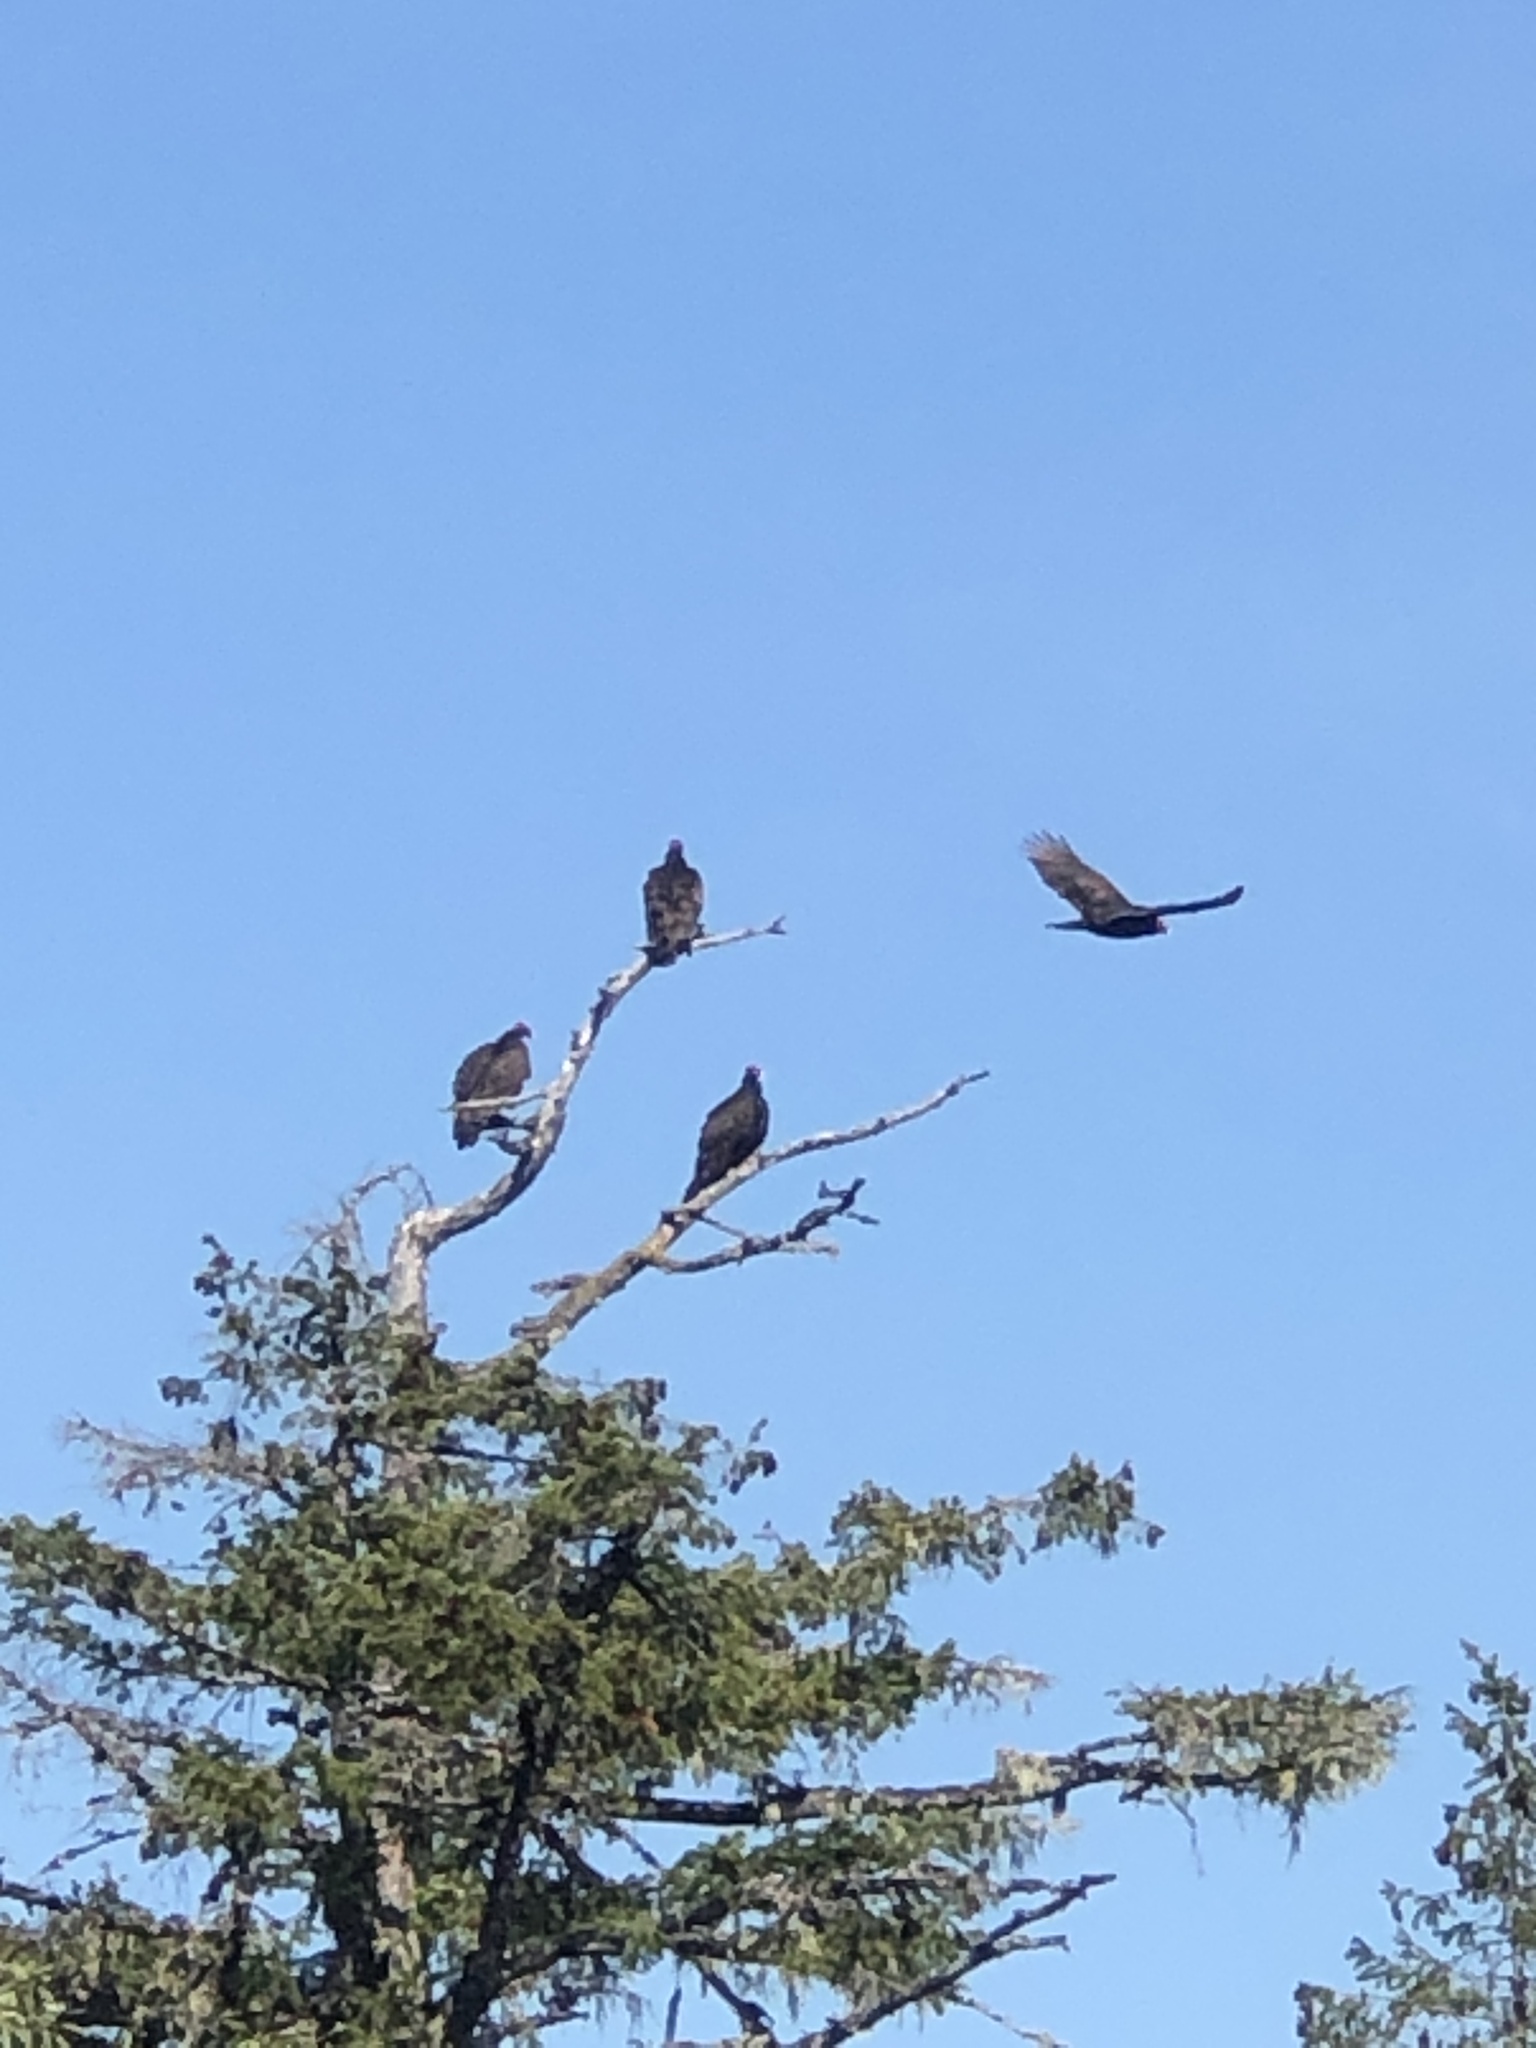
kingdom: Animalia
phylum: Chordata
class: Aves
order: Accipitriformes
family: Cathartidae
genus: Cathartes
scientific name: Cathartes aura
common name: Turkey vulture
